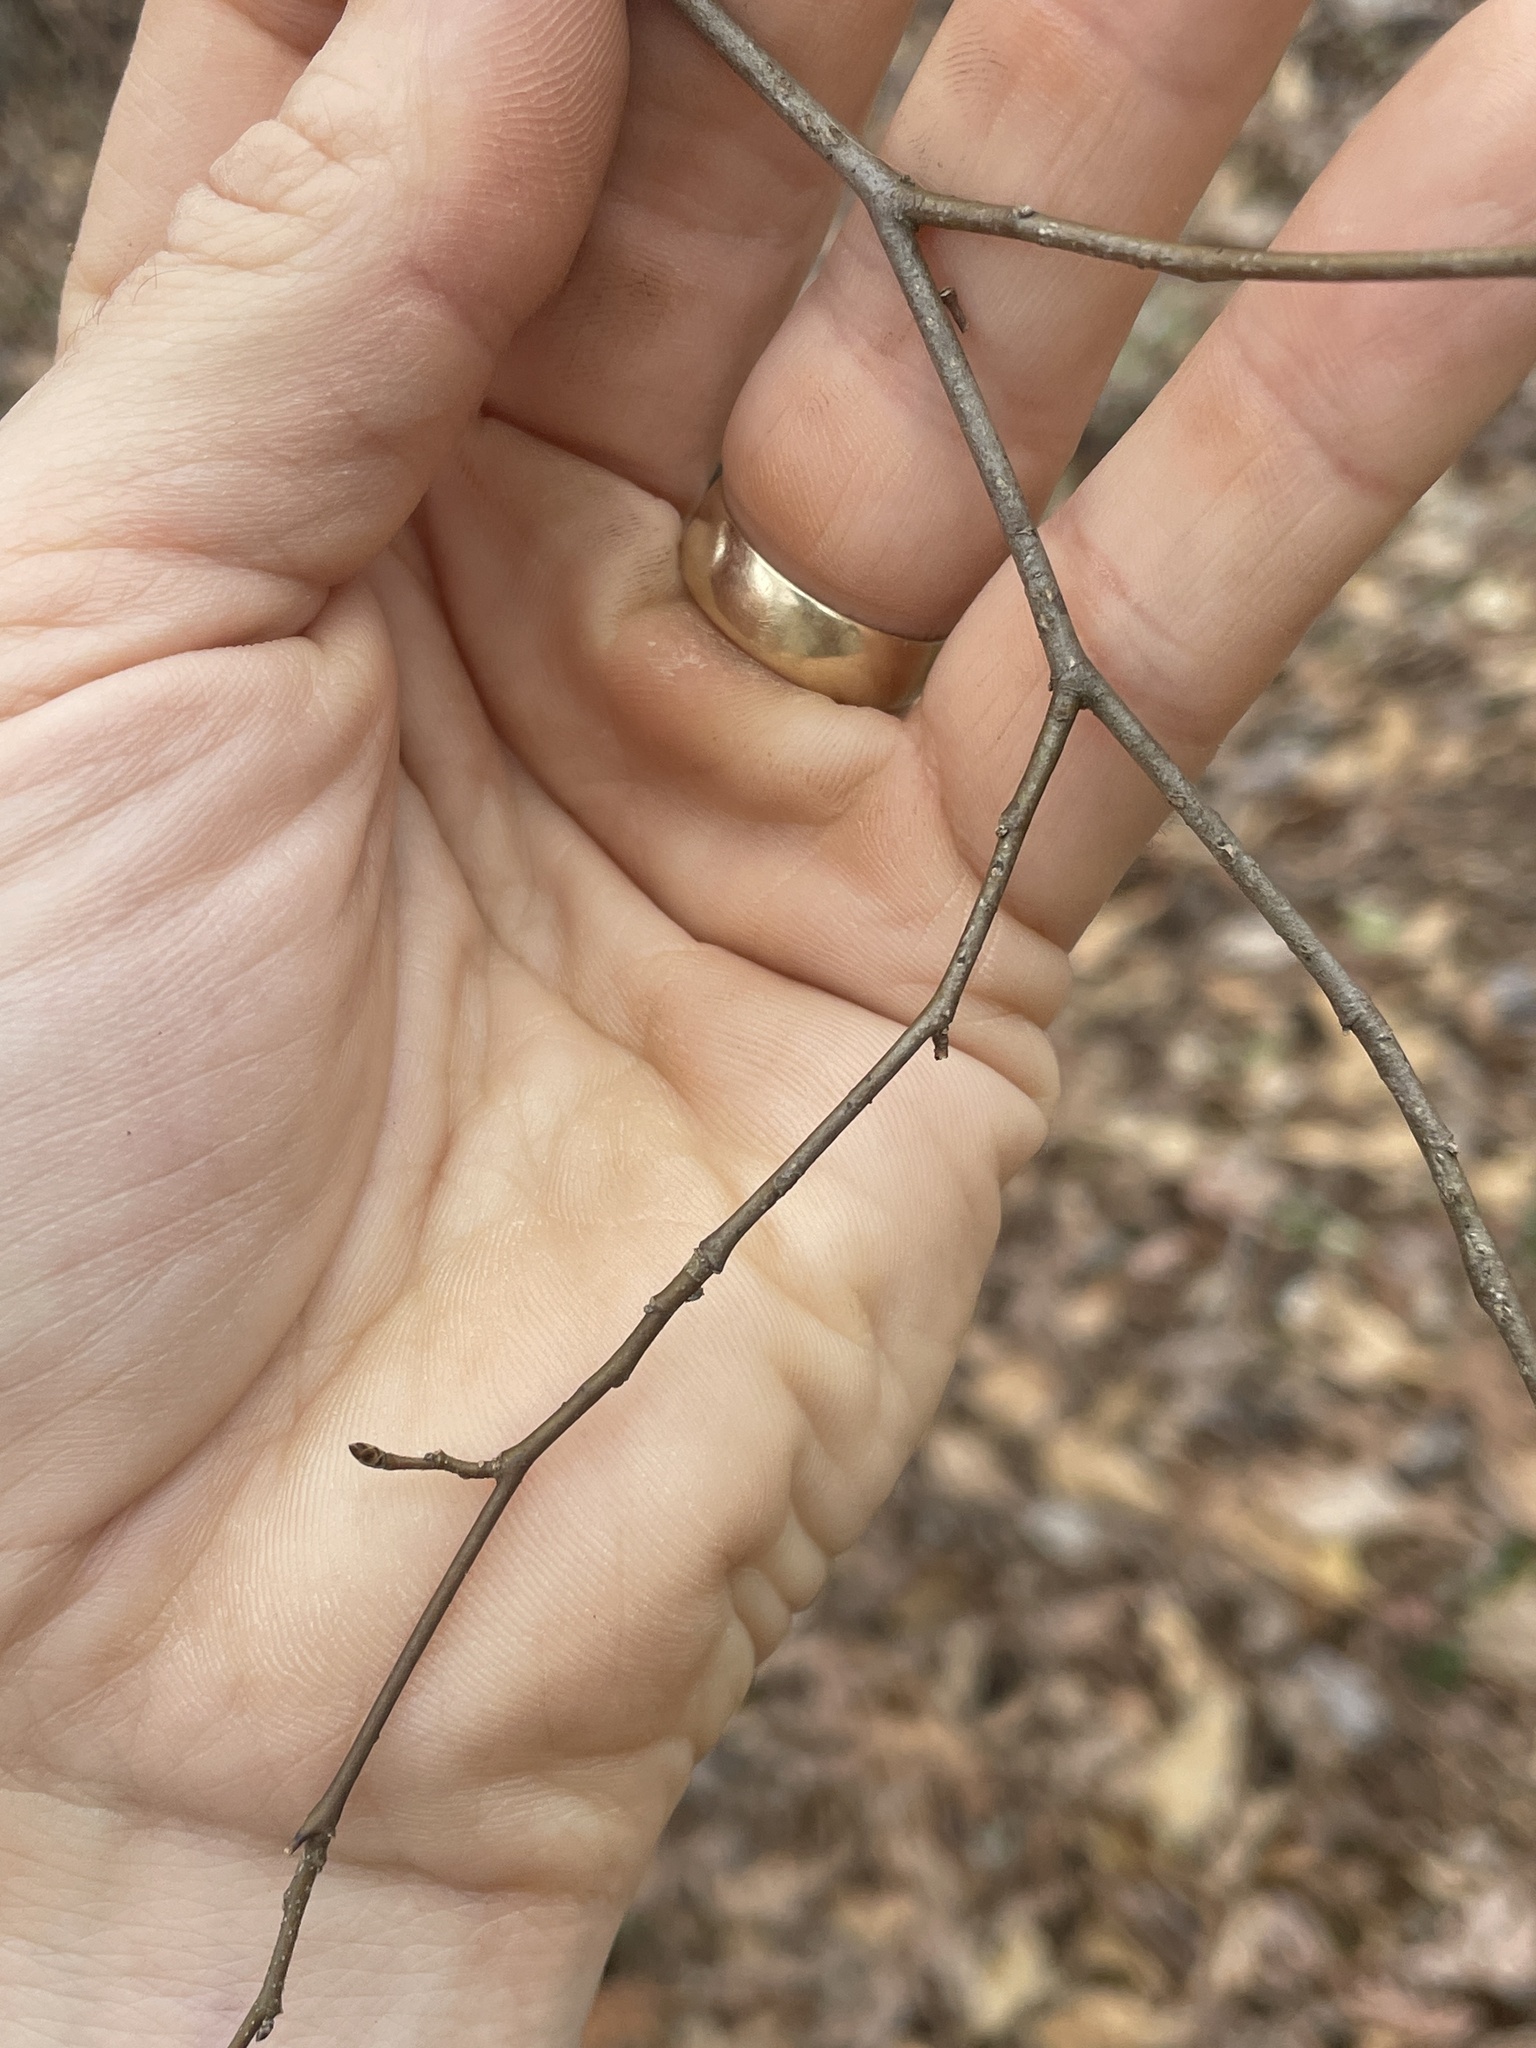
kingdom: Plantae
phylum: Tracheophyta
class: Magnoliopsida
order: Fagales
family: Betulaceae
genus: Carpinus
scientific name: Carpinus caroliniana
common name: American hornbeam
